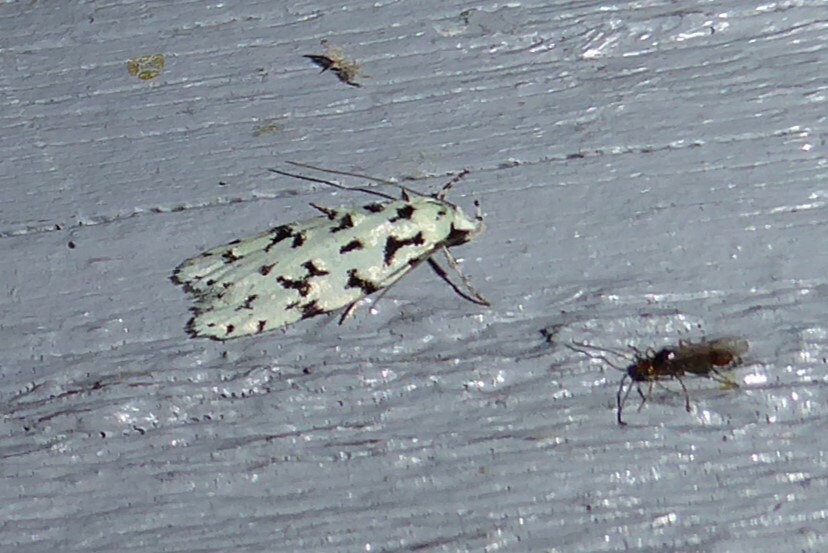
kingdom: Animalia
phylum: Arthropoda
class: Insecta
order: Lepidoptera
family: Oecophoridae
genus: Izatha
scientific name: Izatha huttoni
